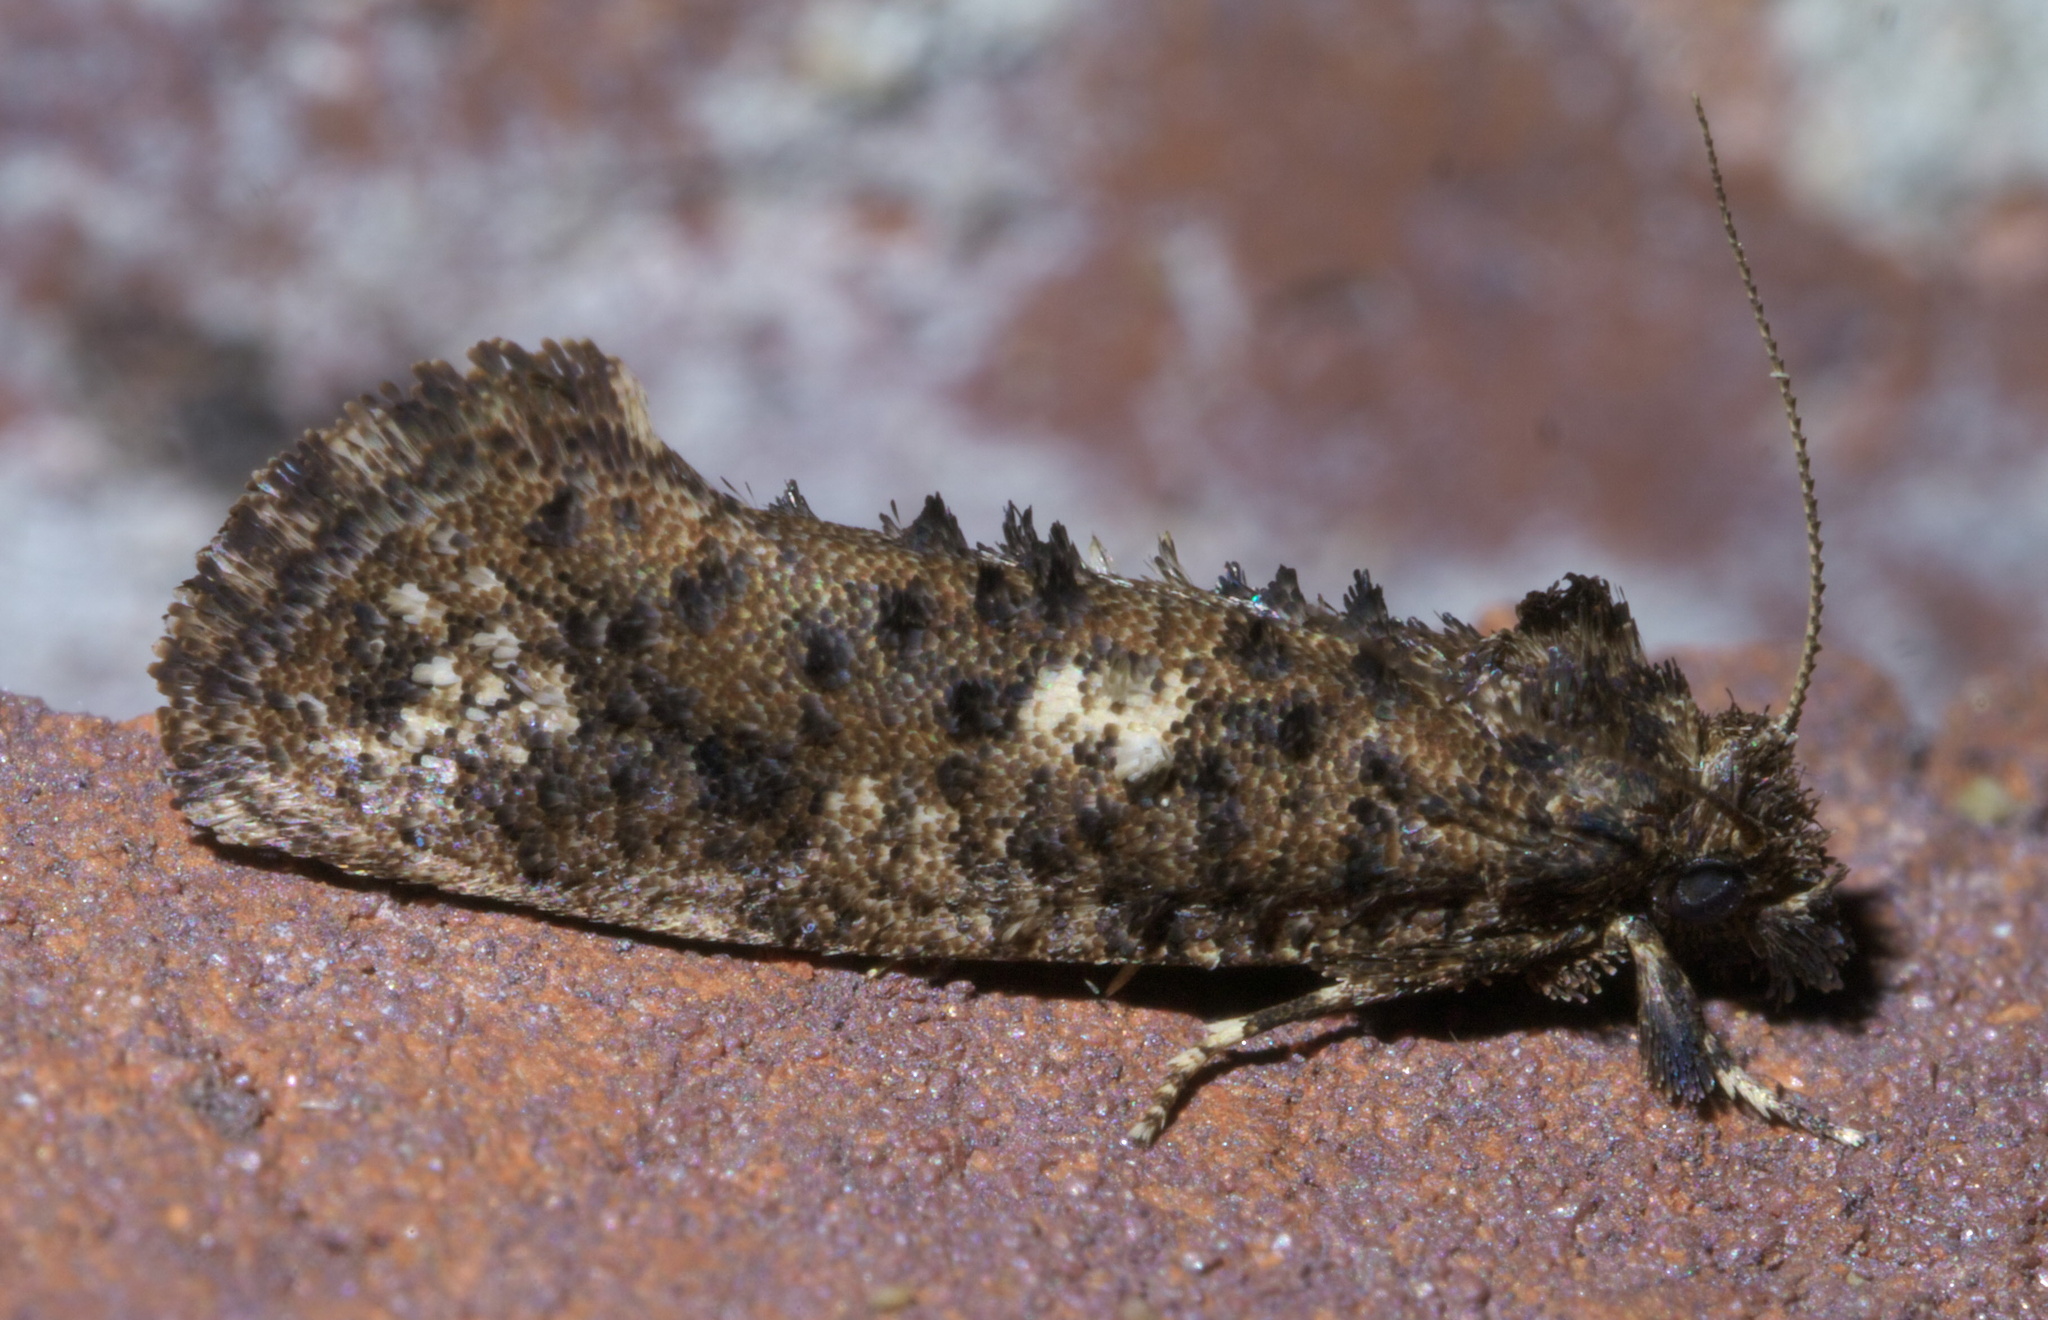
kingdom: Animalia
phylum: Arthropoda
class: Insecta
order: Lepidoptera
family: Tineidae
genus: Acrolophus
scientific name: Acrolophus cressoni
